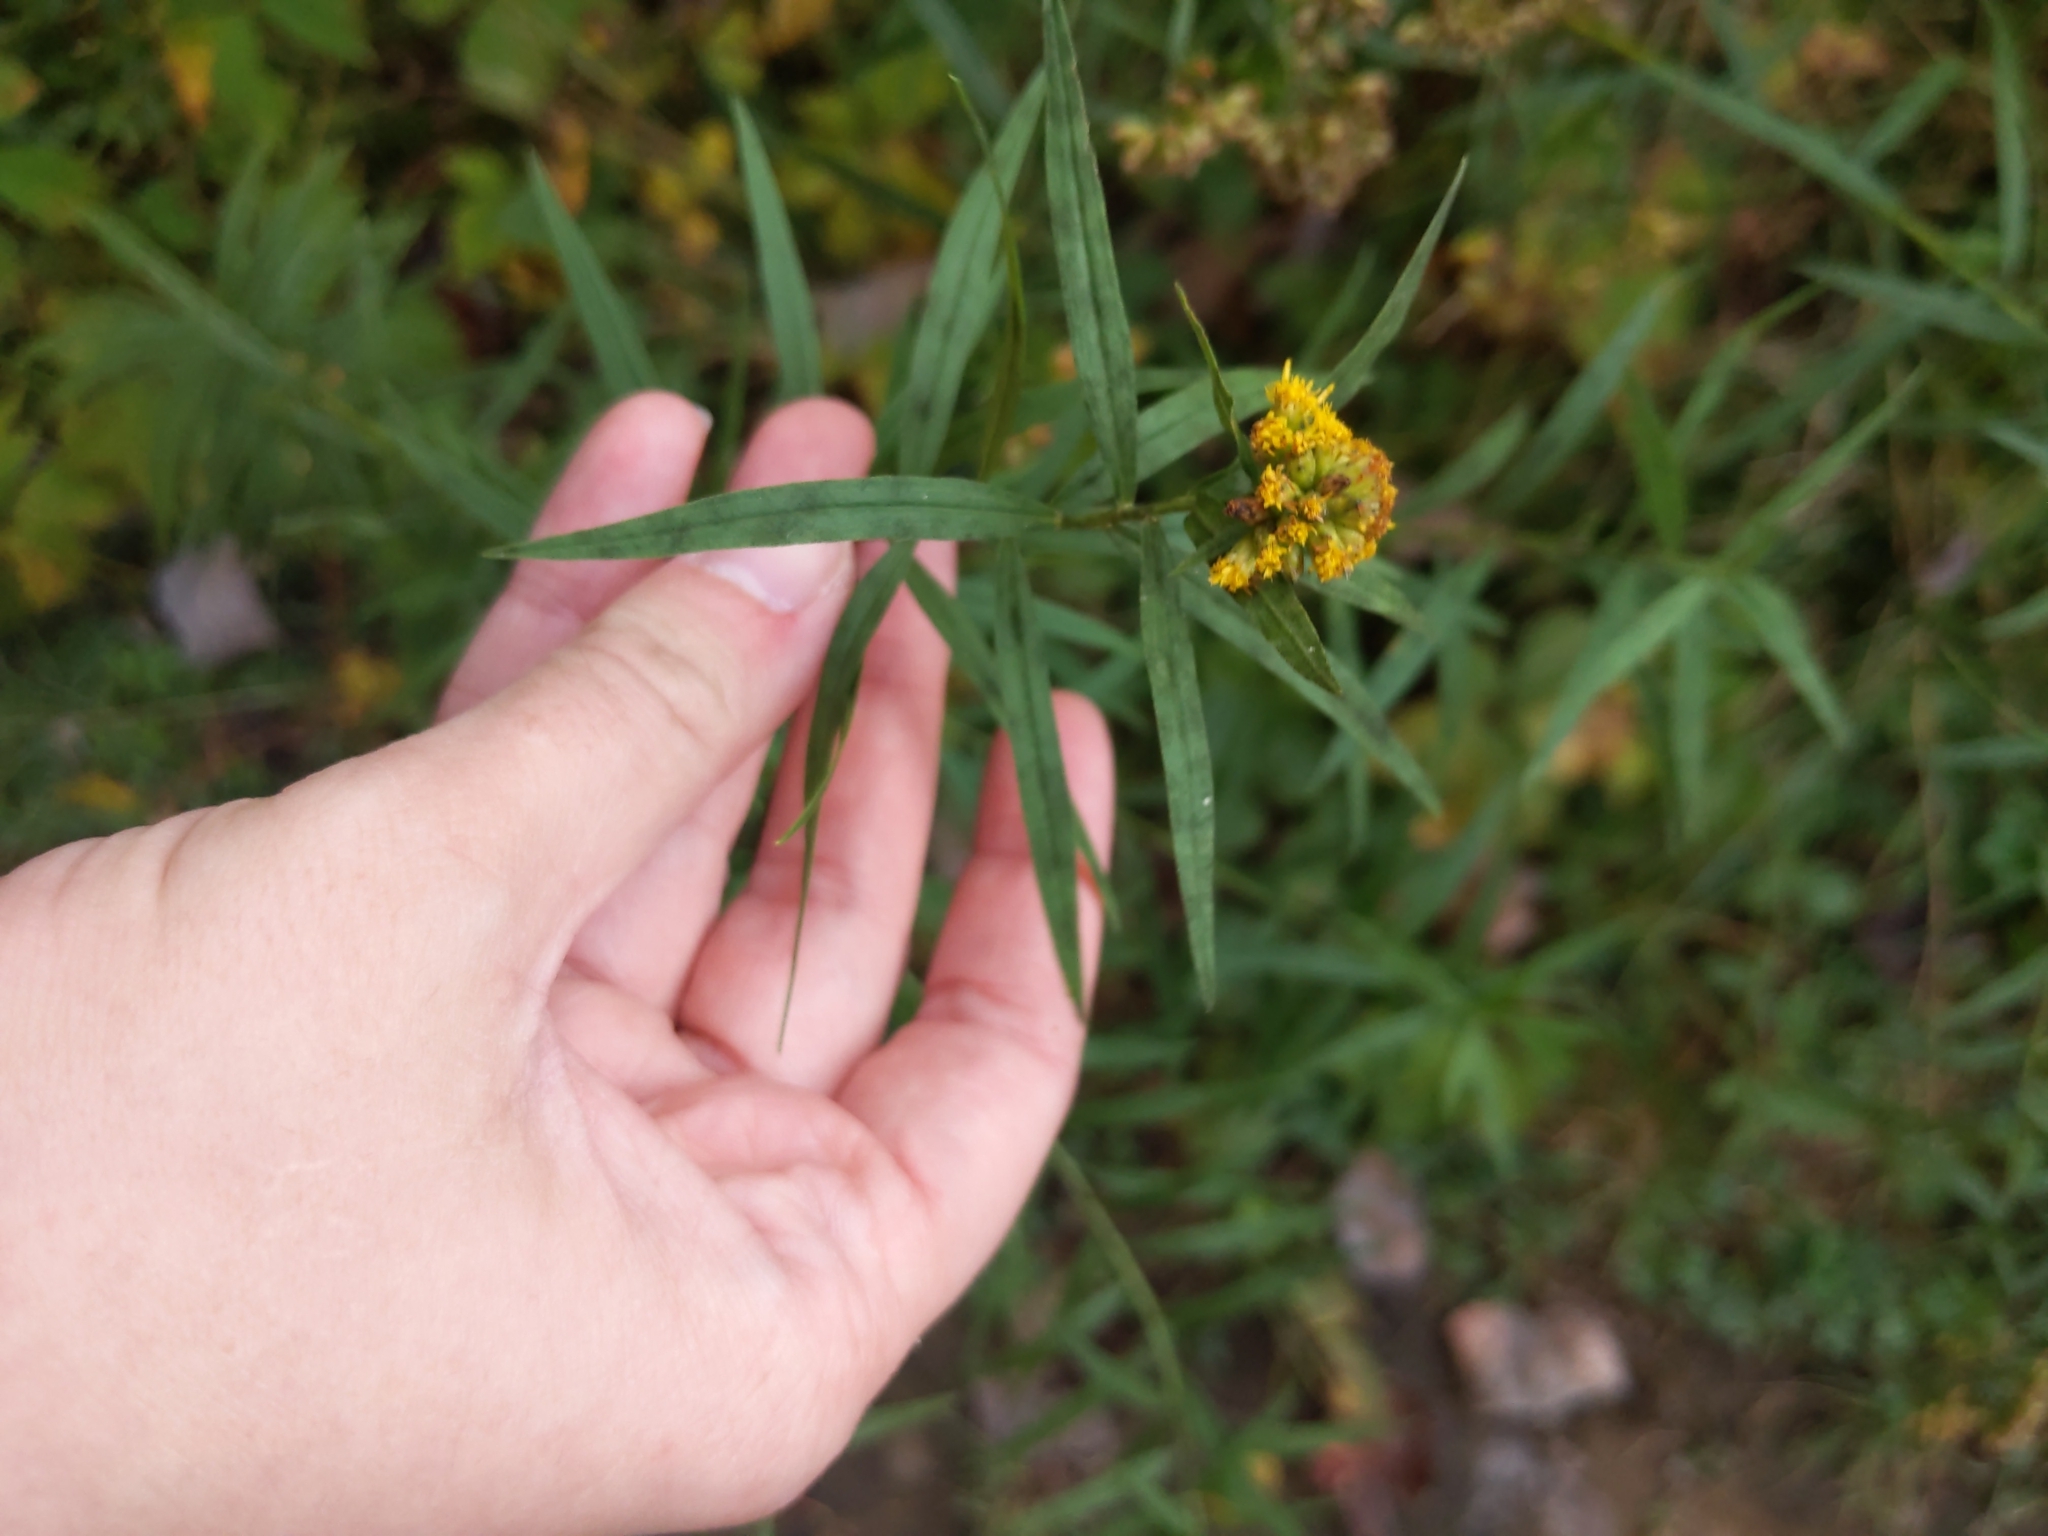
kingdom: Plantae
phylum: Tracheophyta
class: Magnoliopsida
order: Asterales
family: Asteraceae
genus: Euthamia
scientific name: Euthamia graminifolia
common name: Common goldentop
